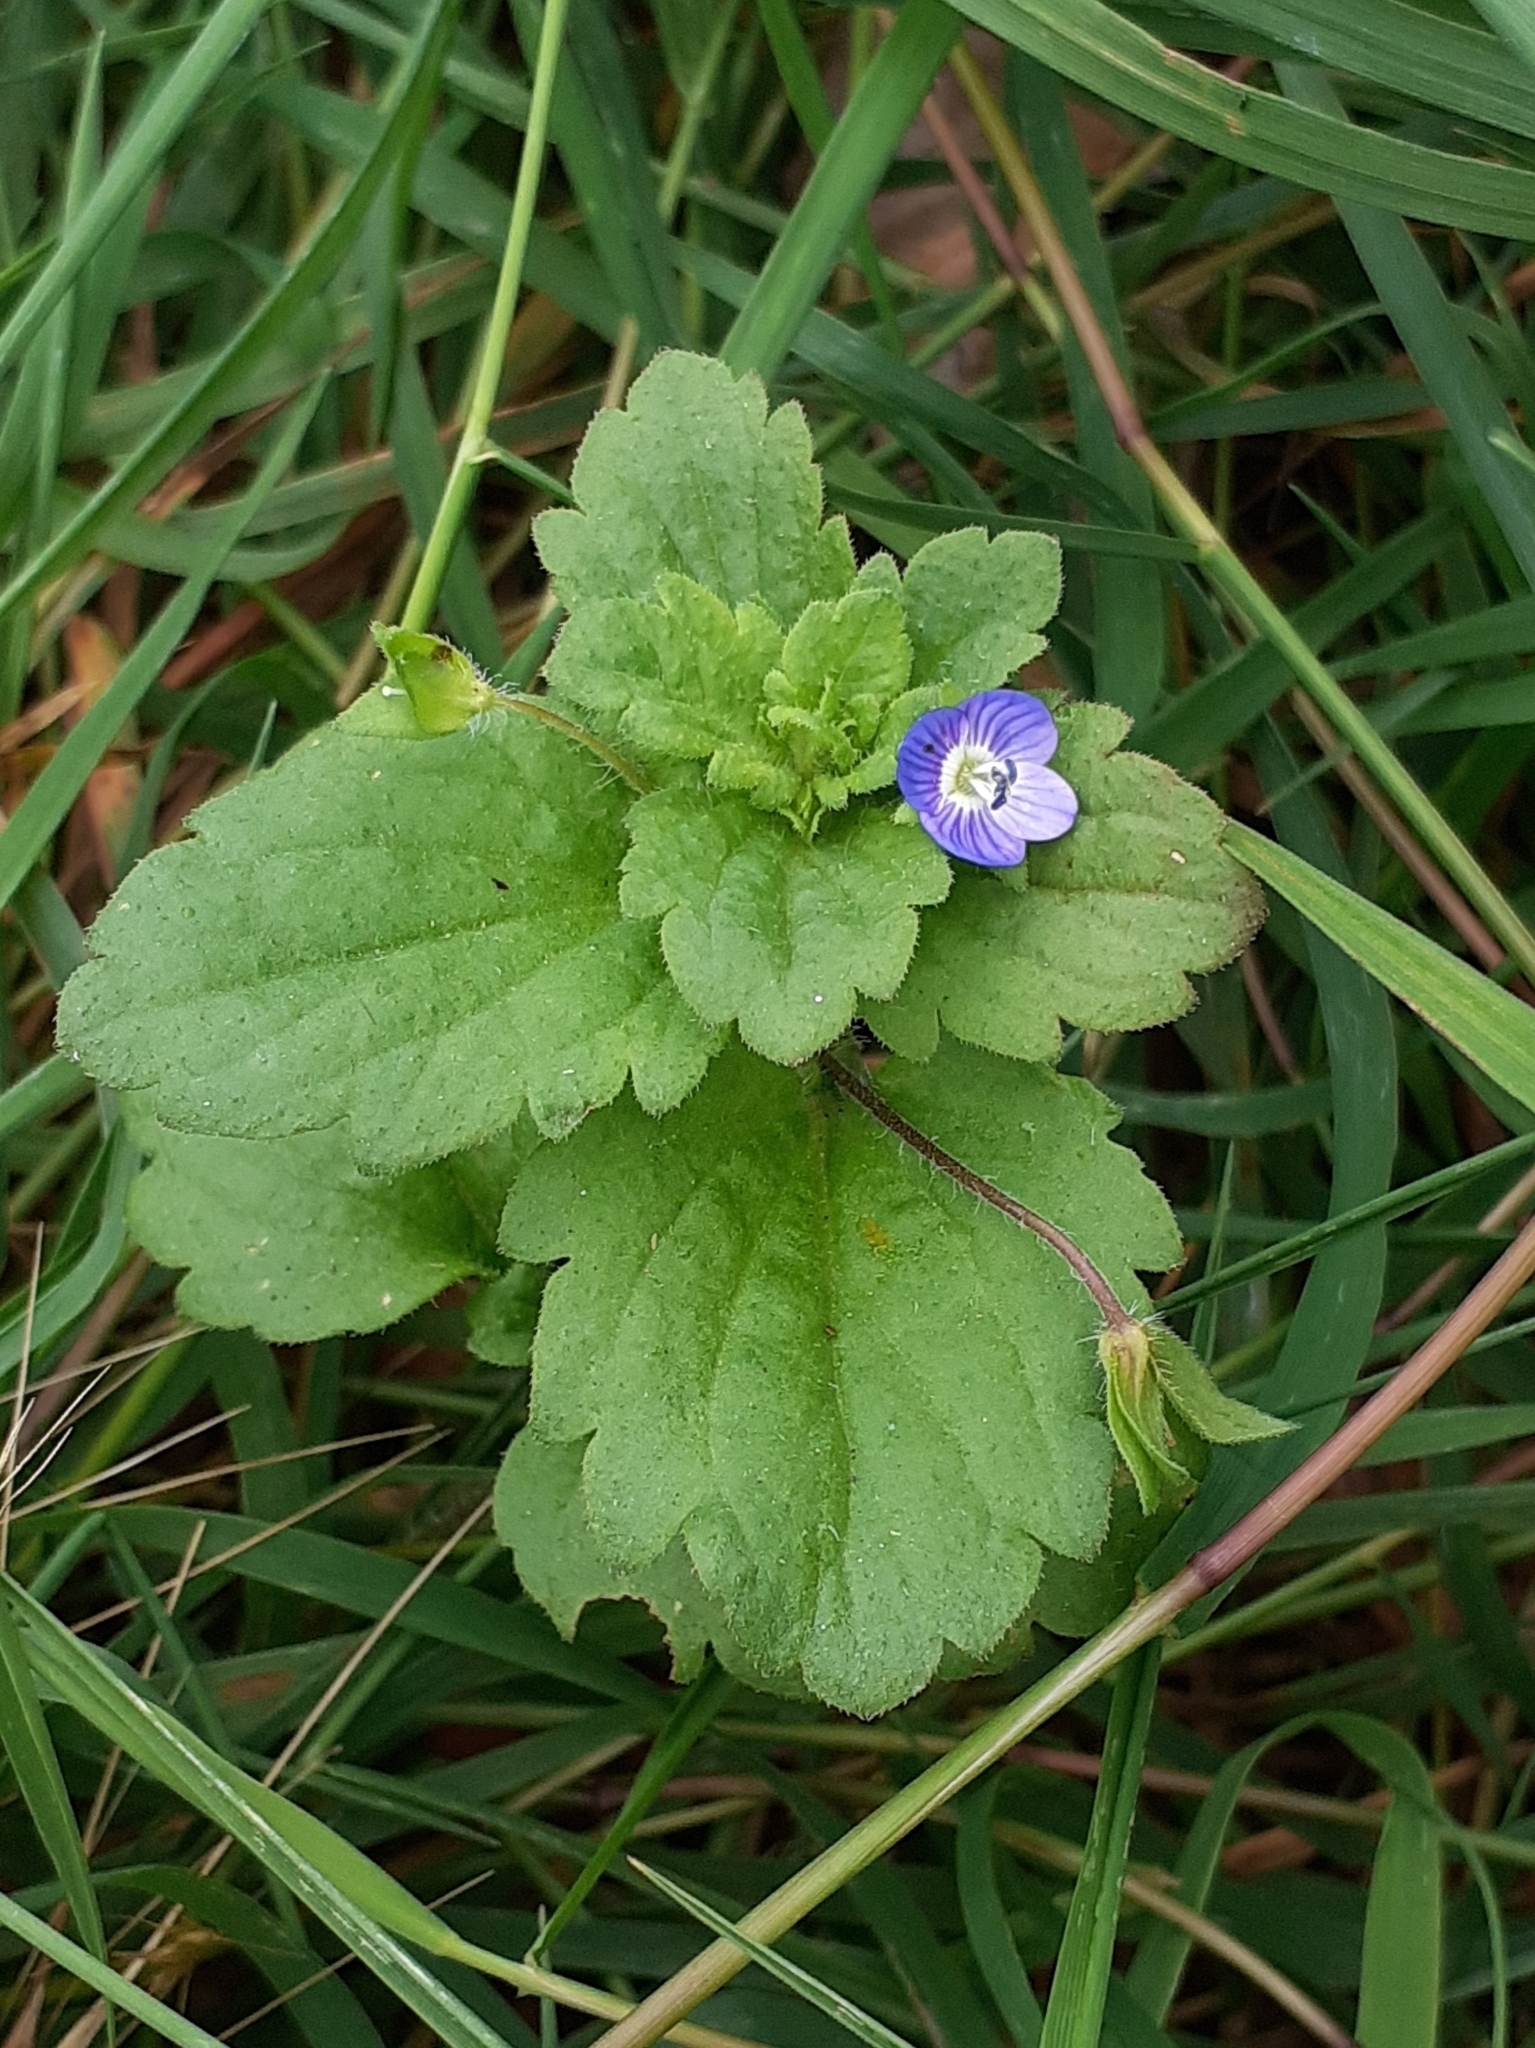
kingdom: Plantae
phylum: Tracheophyta
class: Magnoliopsida
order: Lamiales
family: Plantaginaceae
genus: Veronica
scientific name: Veronica persica
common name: Common field-speedwell
